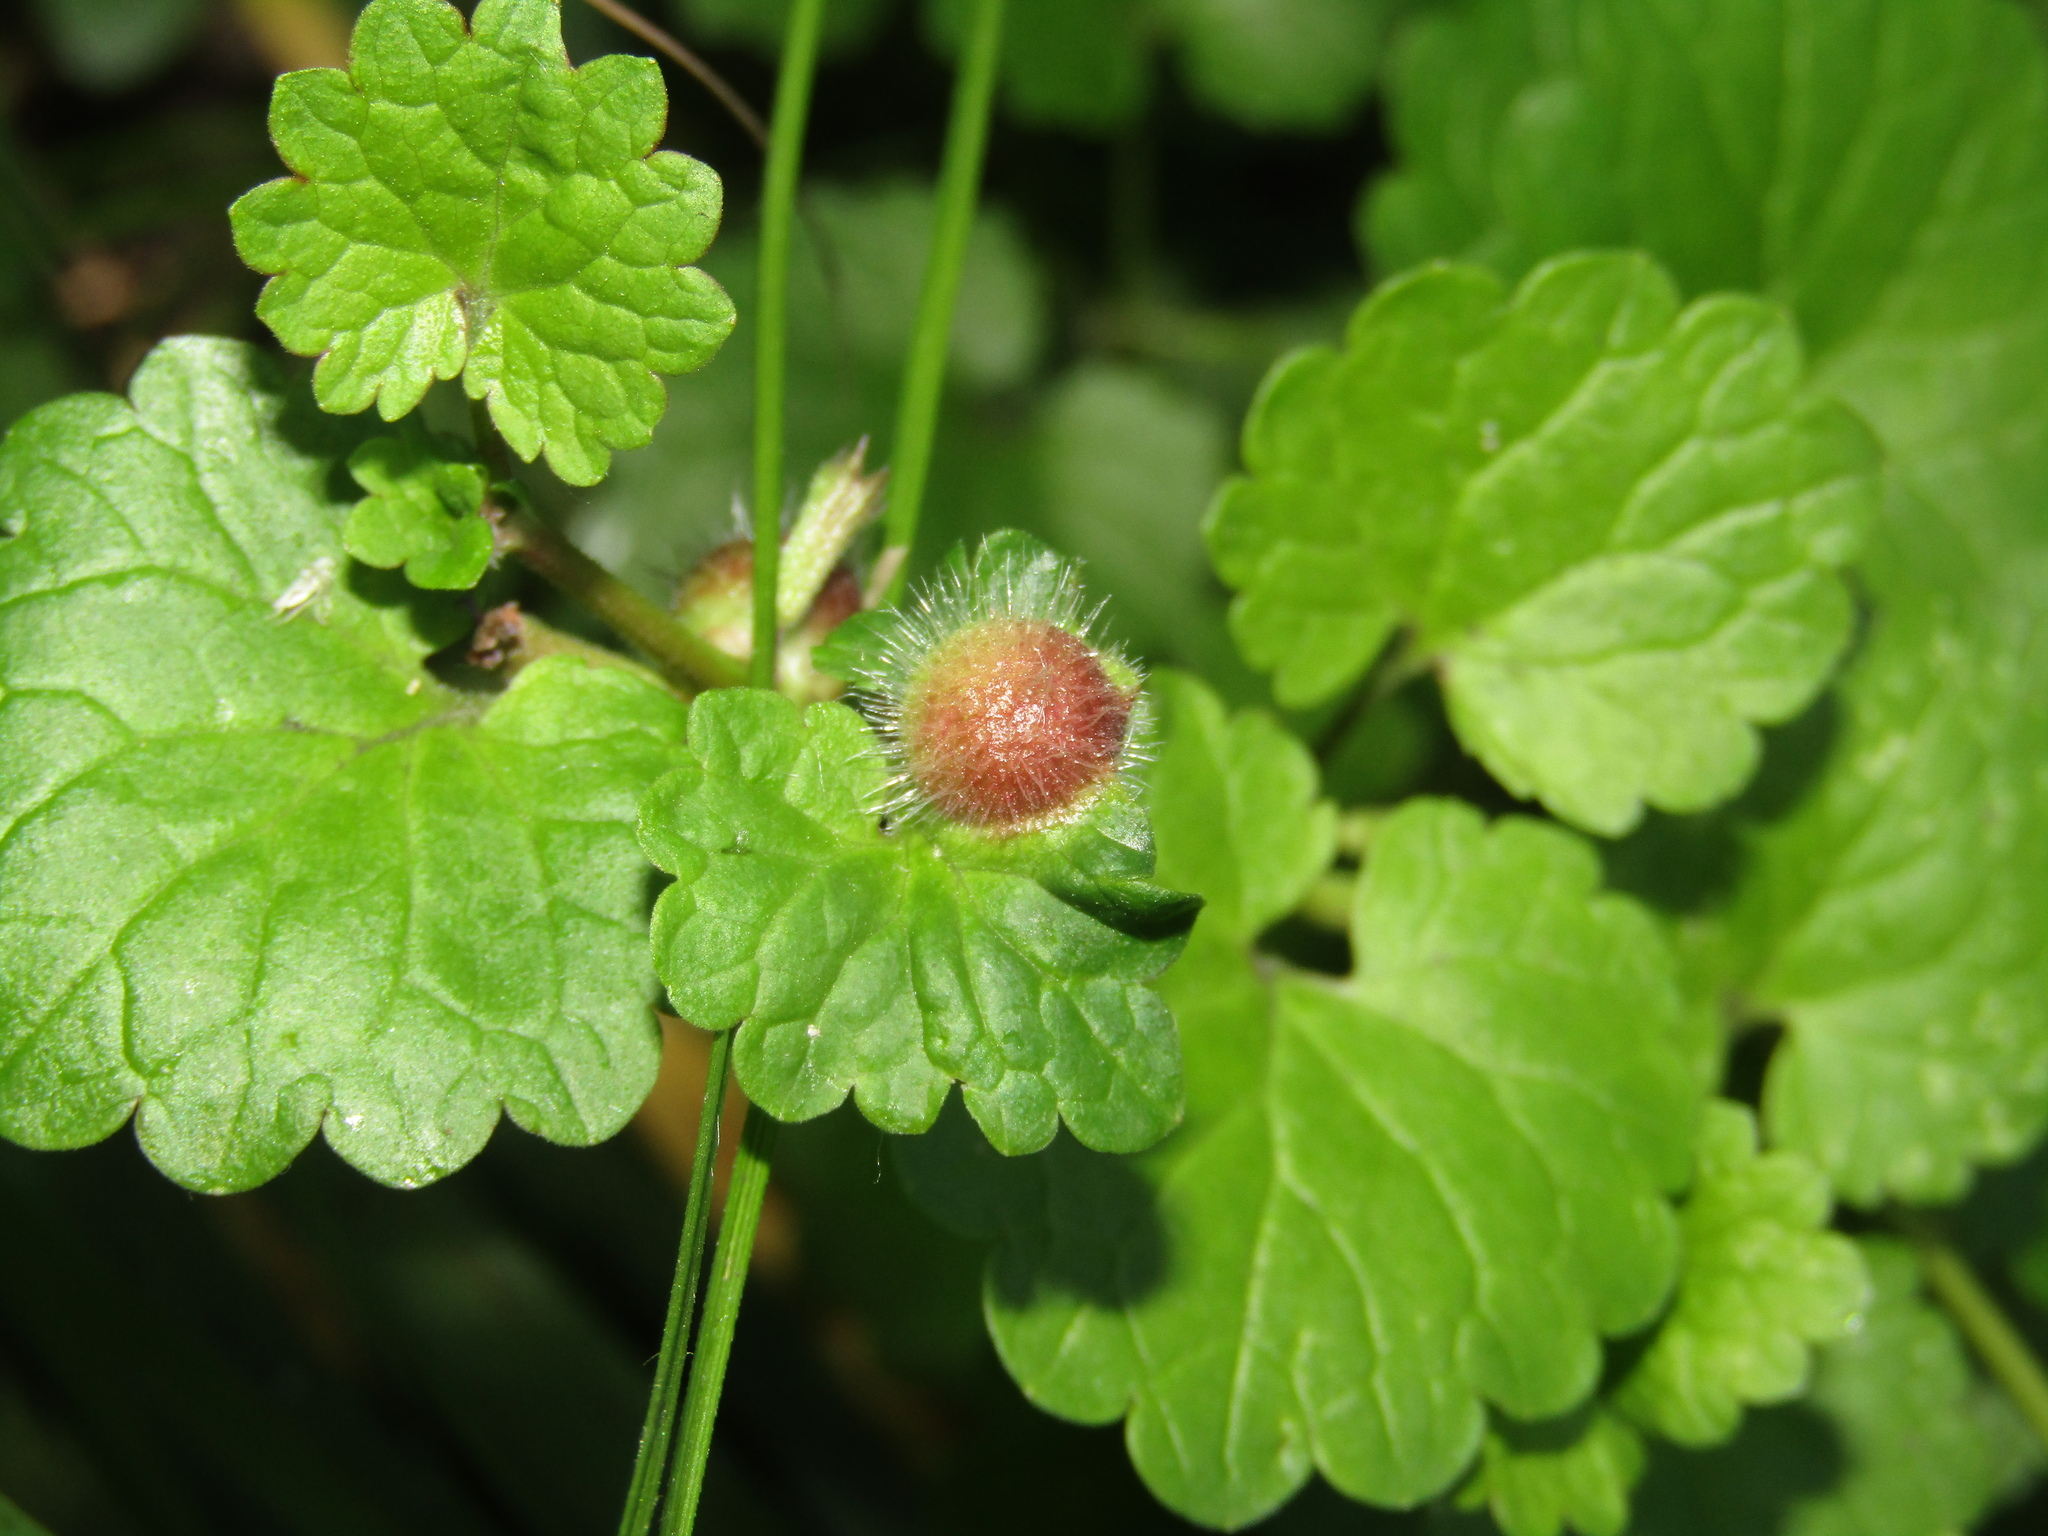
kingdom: Animalia
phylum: Arthropoda
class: Insecta
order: Hymenoptera
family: Cynipidae
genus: Liposthenes
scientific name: Liposthenes glechomae
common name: Gall wasp
